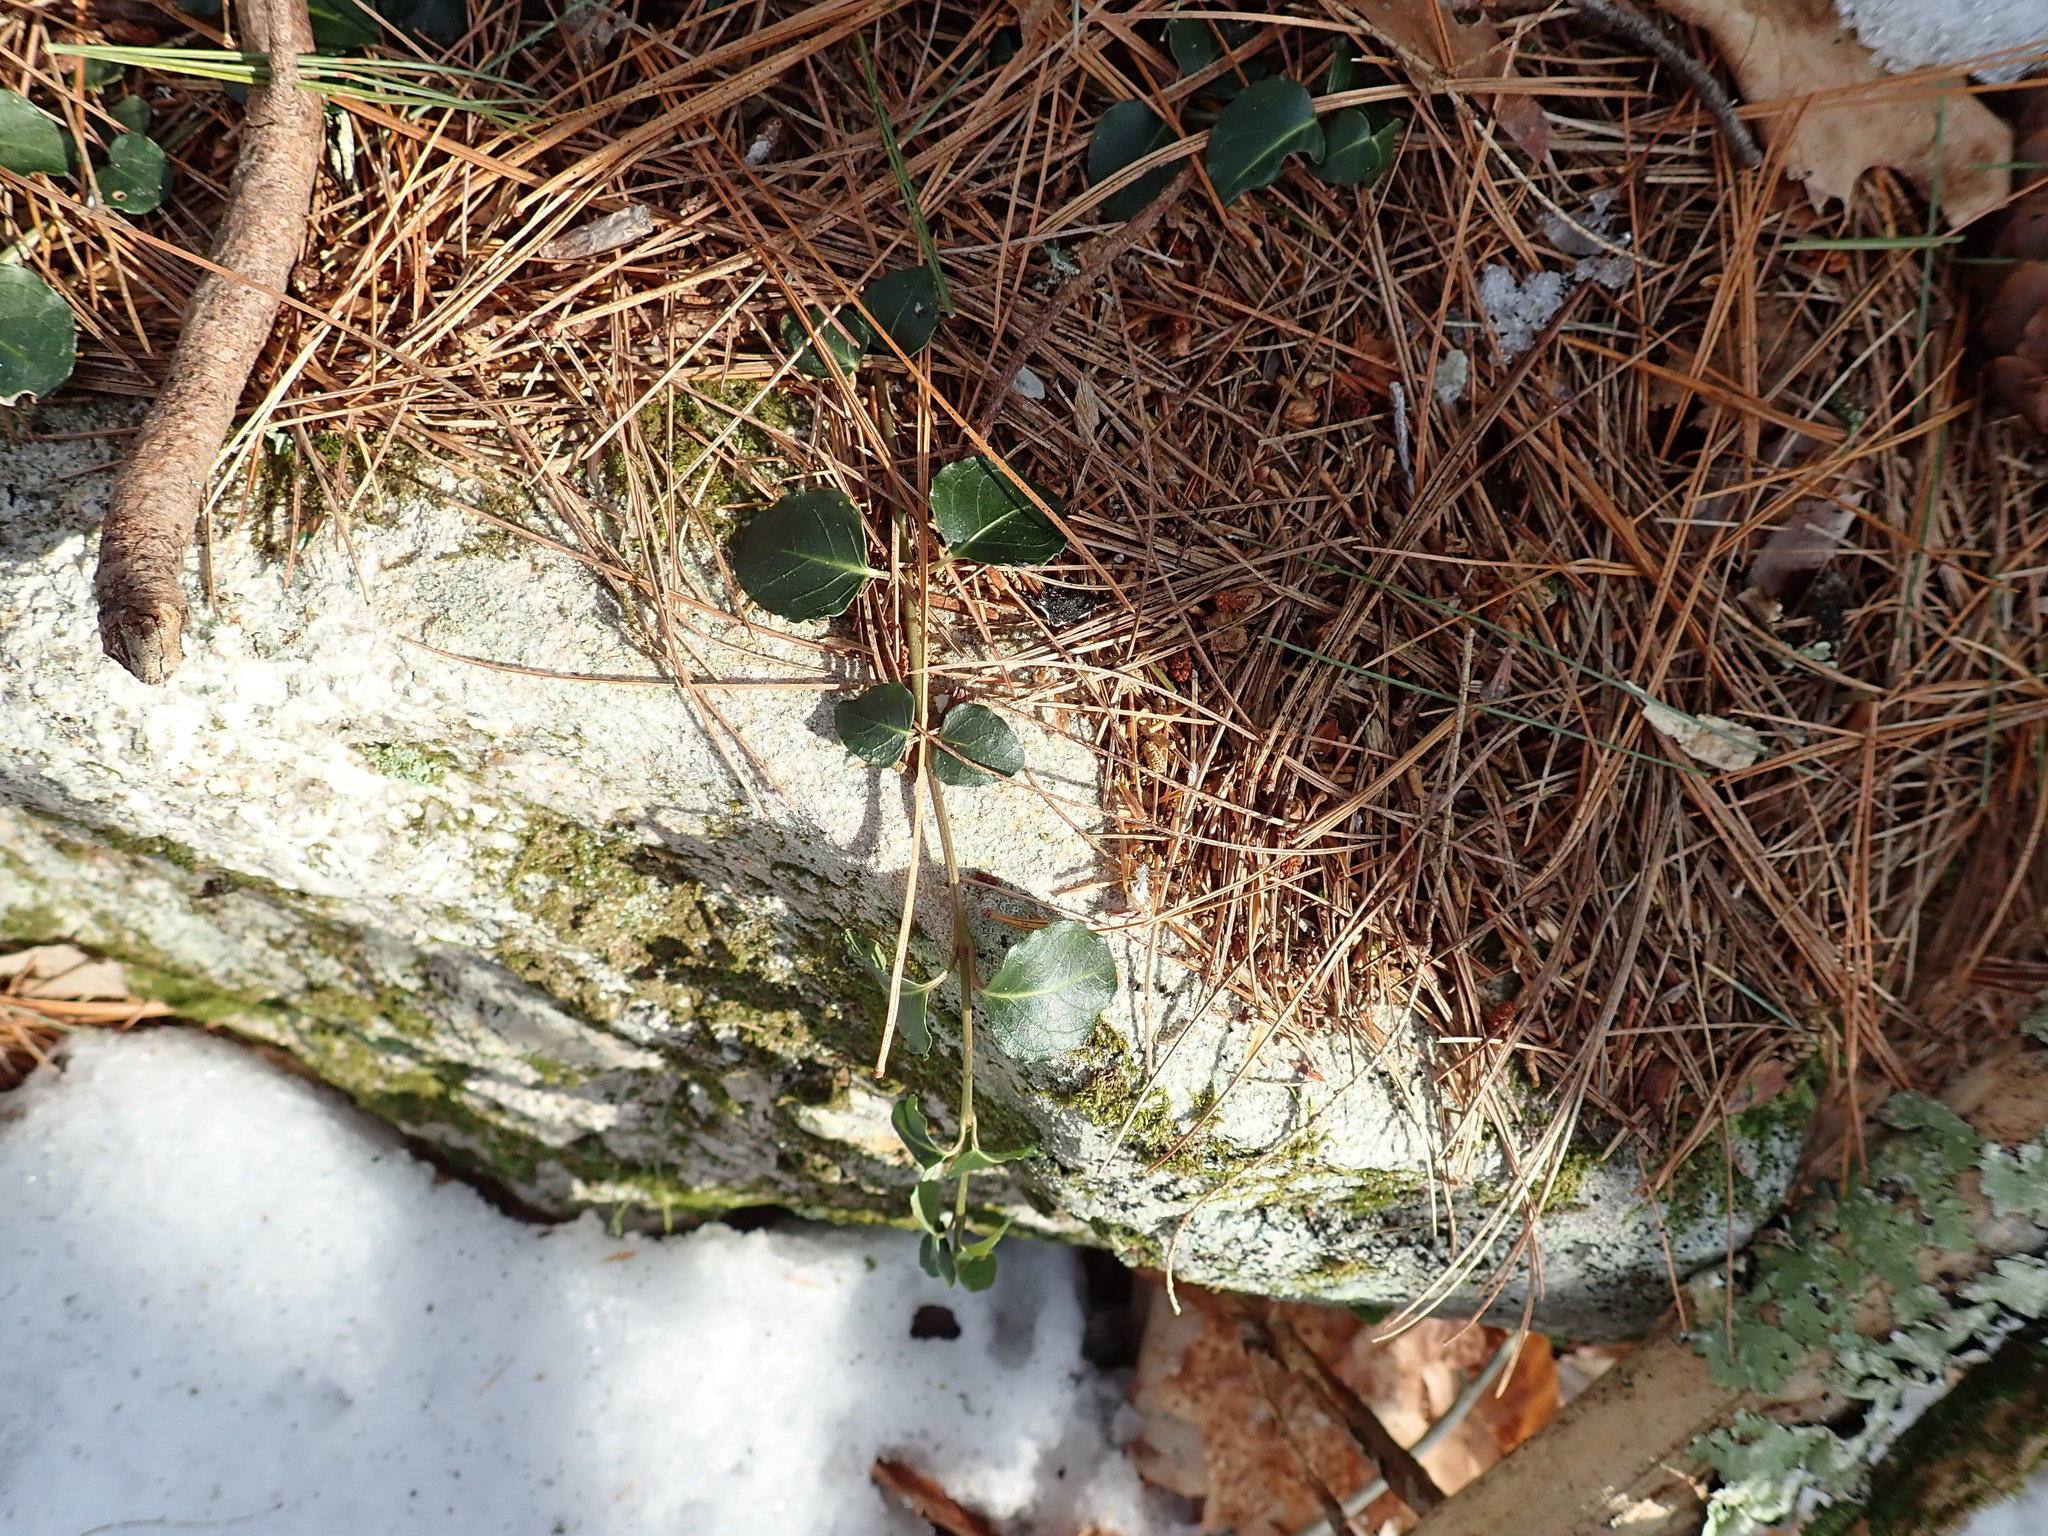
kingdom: Plantae
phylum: Tracheophyta
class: Magnoliopsida
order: Gentianales
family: Rubiaceae
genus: Mitchella
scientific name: Mitchella repens
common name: Partridge-berry
